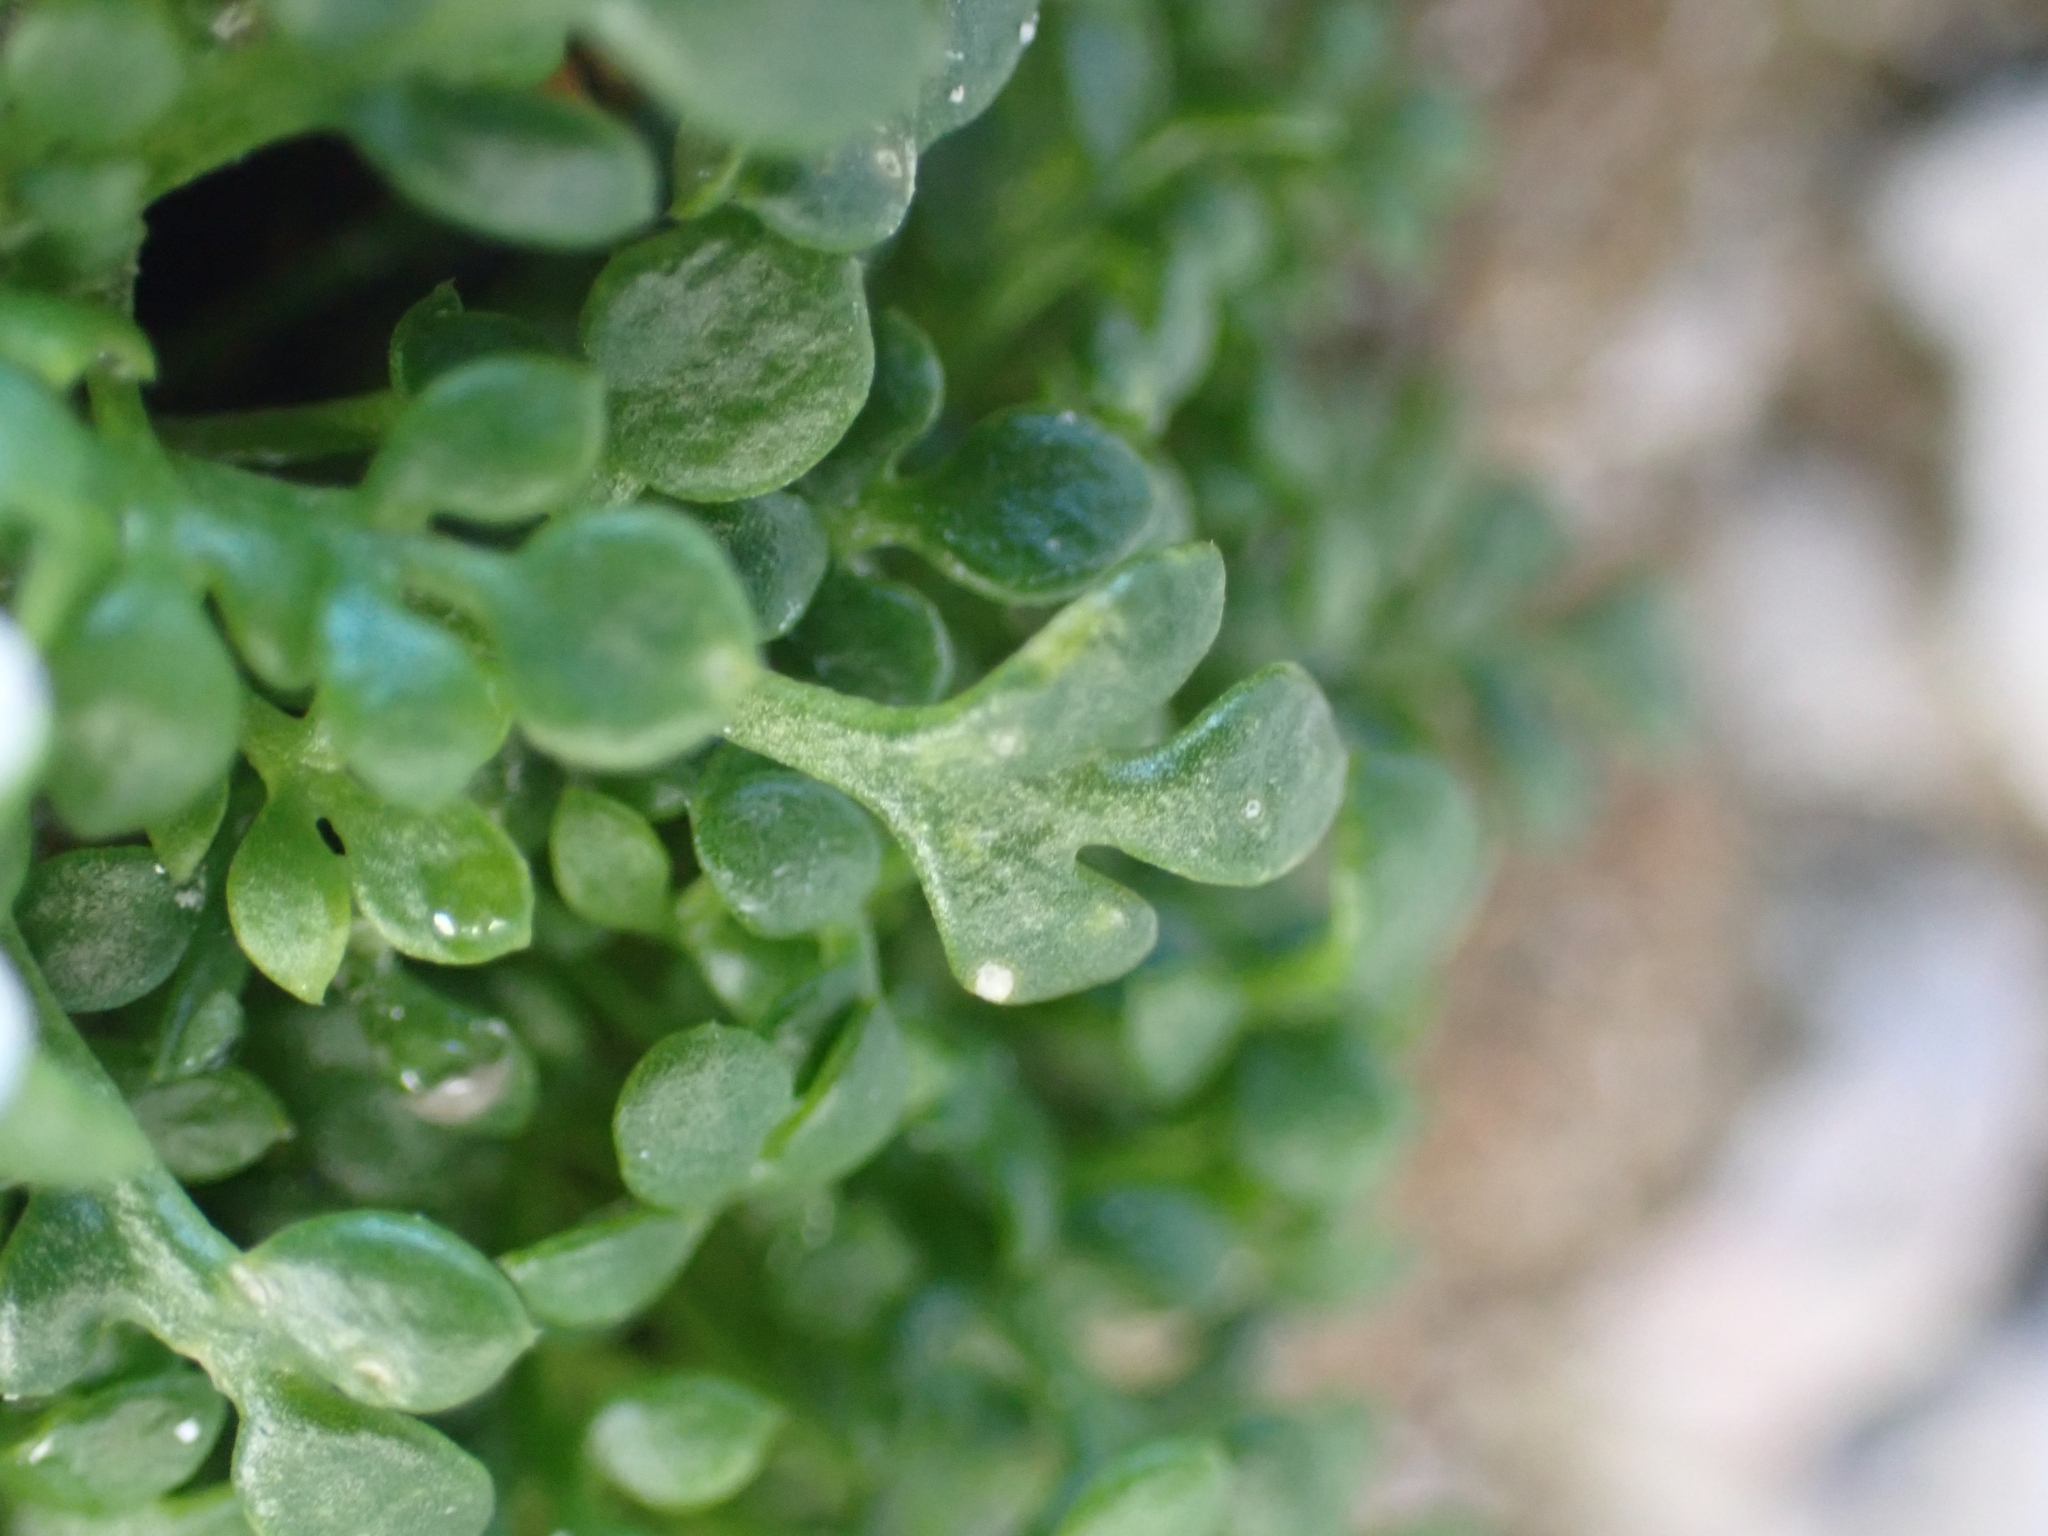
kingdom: Plantae
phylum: Tracheophyta
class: Magnoliopsida
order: Brassicales
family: Brassicaceae
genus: Hornungia
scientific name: Hornungia alpina
